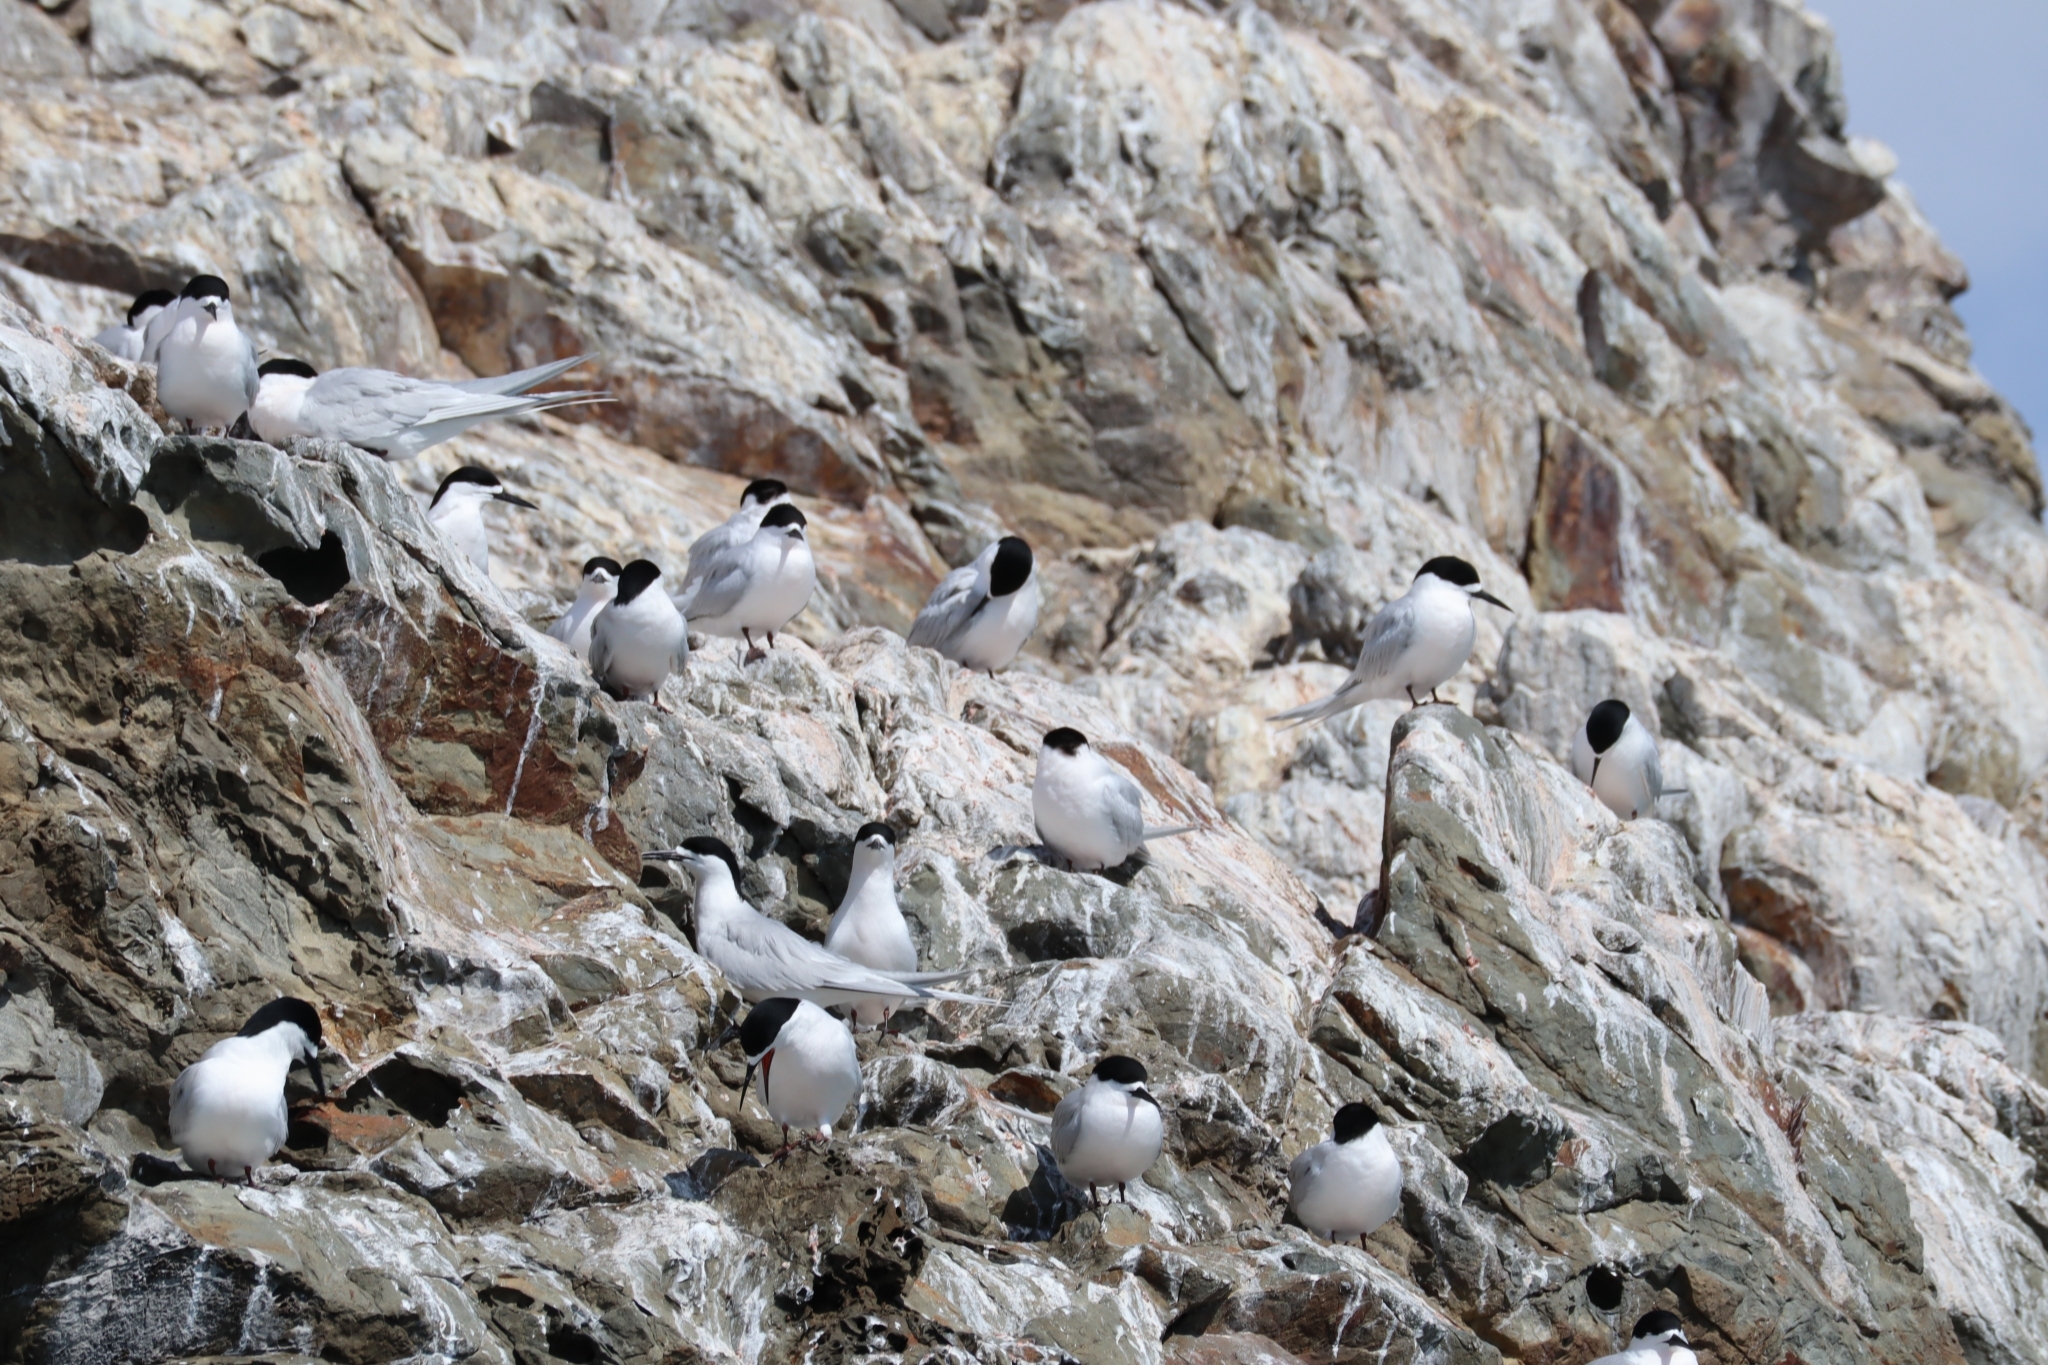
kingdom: Animalia
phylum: Chordata
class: Aves
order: Charadriiformes
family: Laridae
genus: Sterna
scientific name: Sterna striata
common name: White-fronted tern
